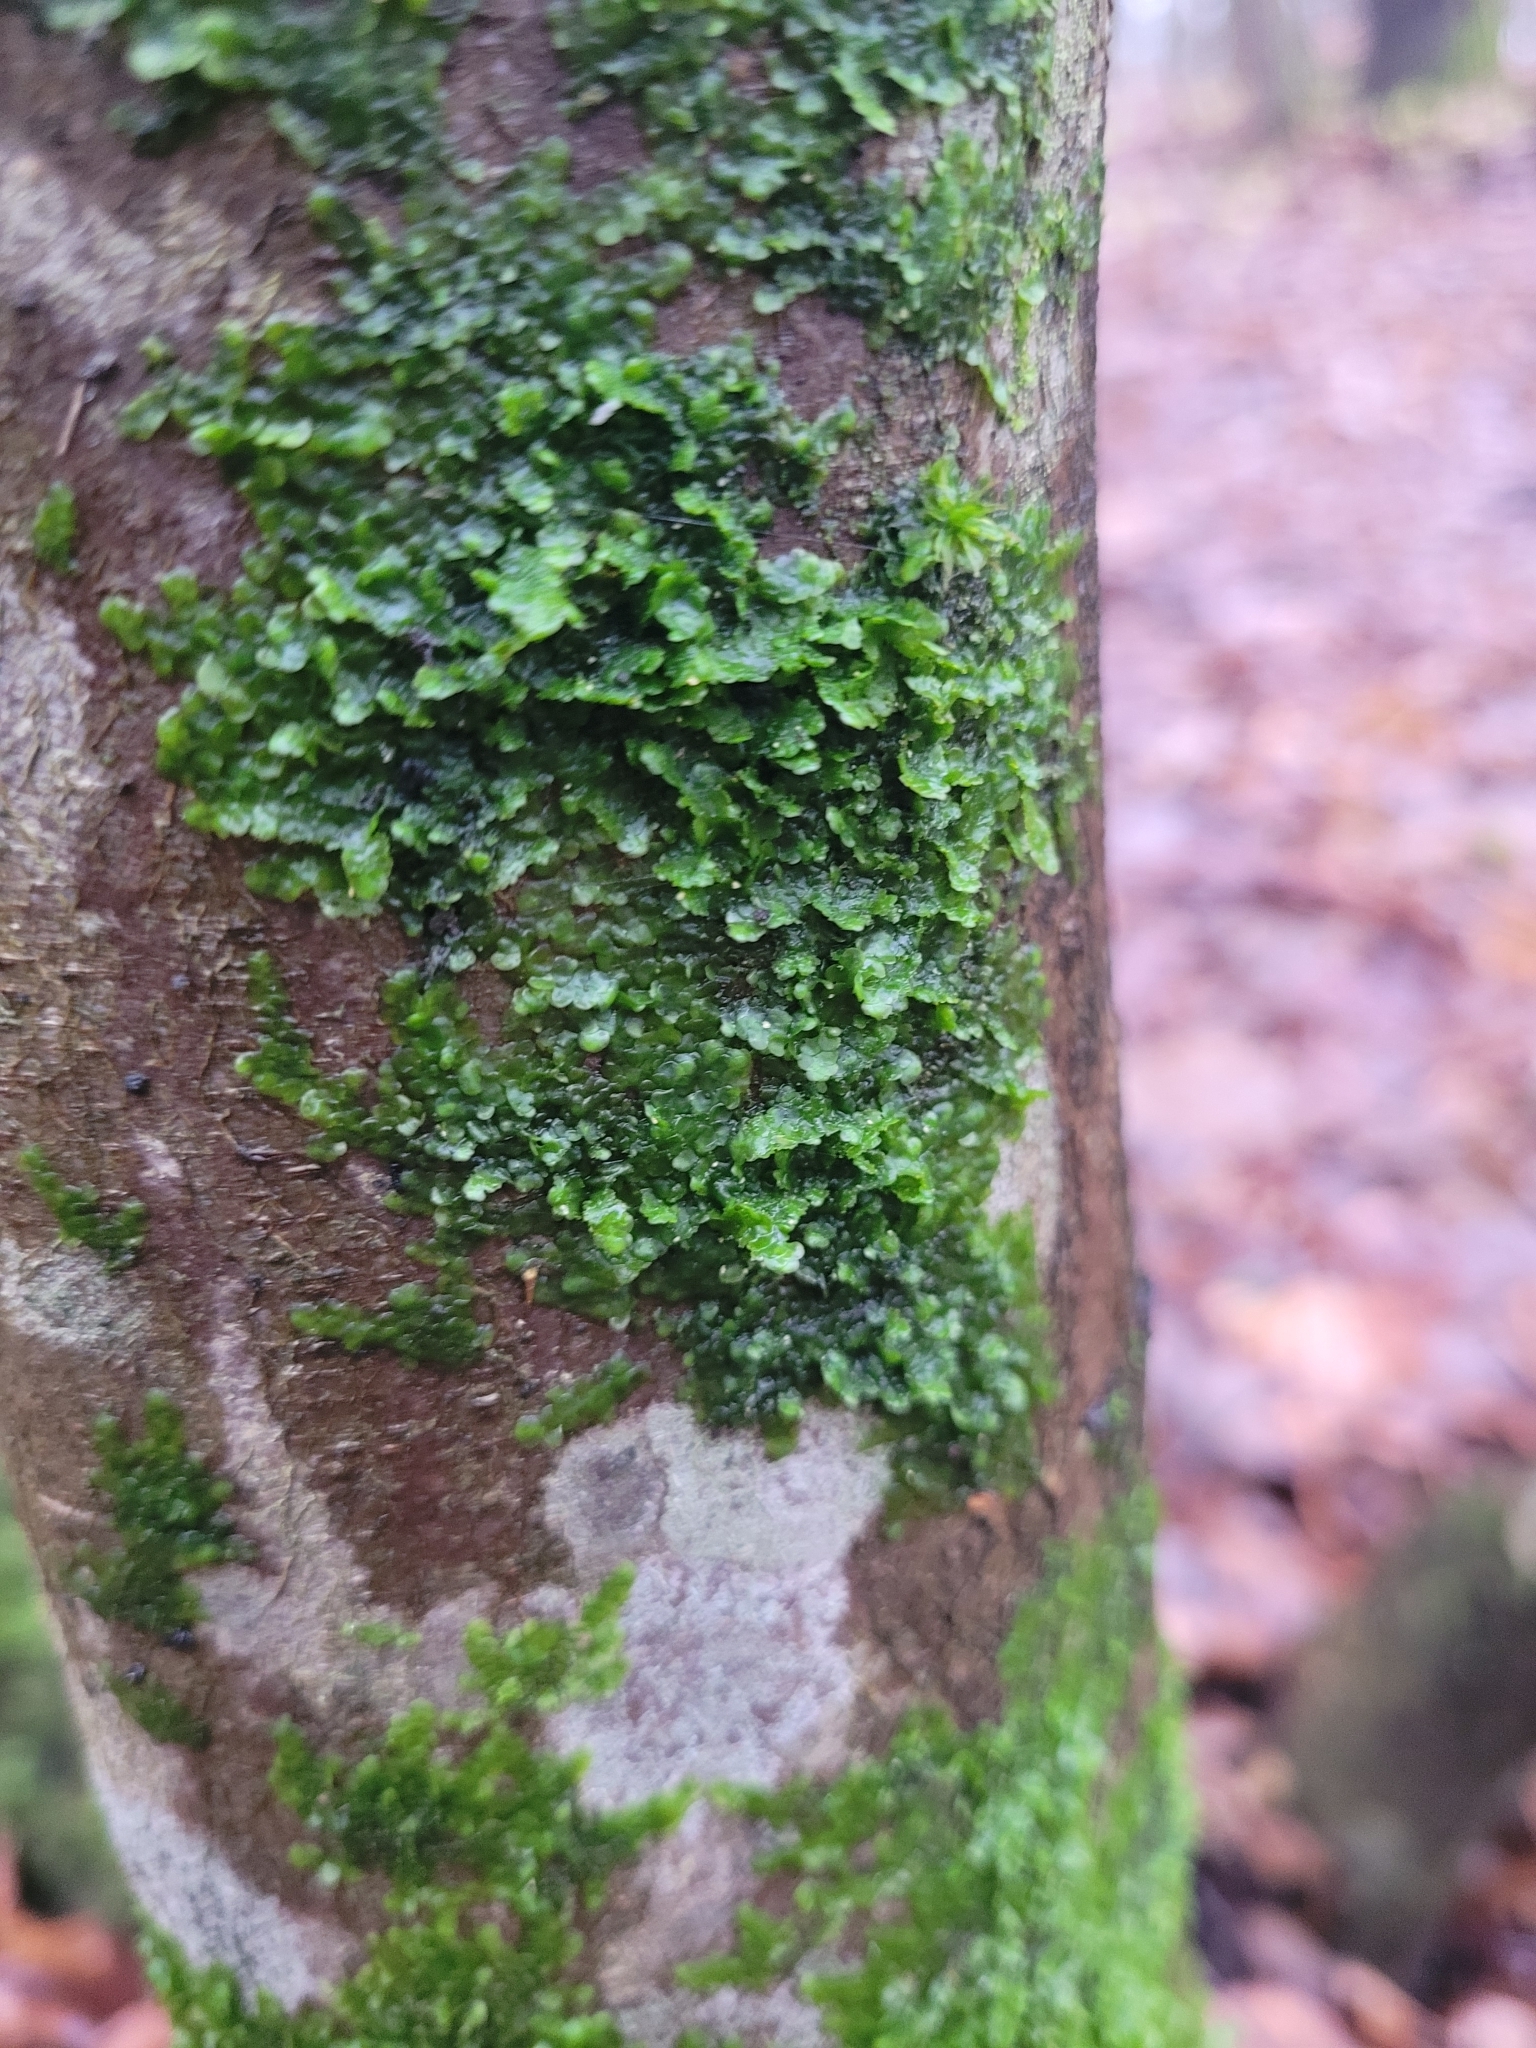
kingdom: Plantae
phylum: Marchantiophyta
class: Jungermanniopsida
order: Porellales
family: Radulaceae
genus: Radula
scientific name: Radula complanata
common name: Flat-leaved scalewort
